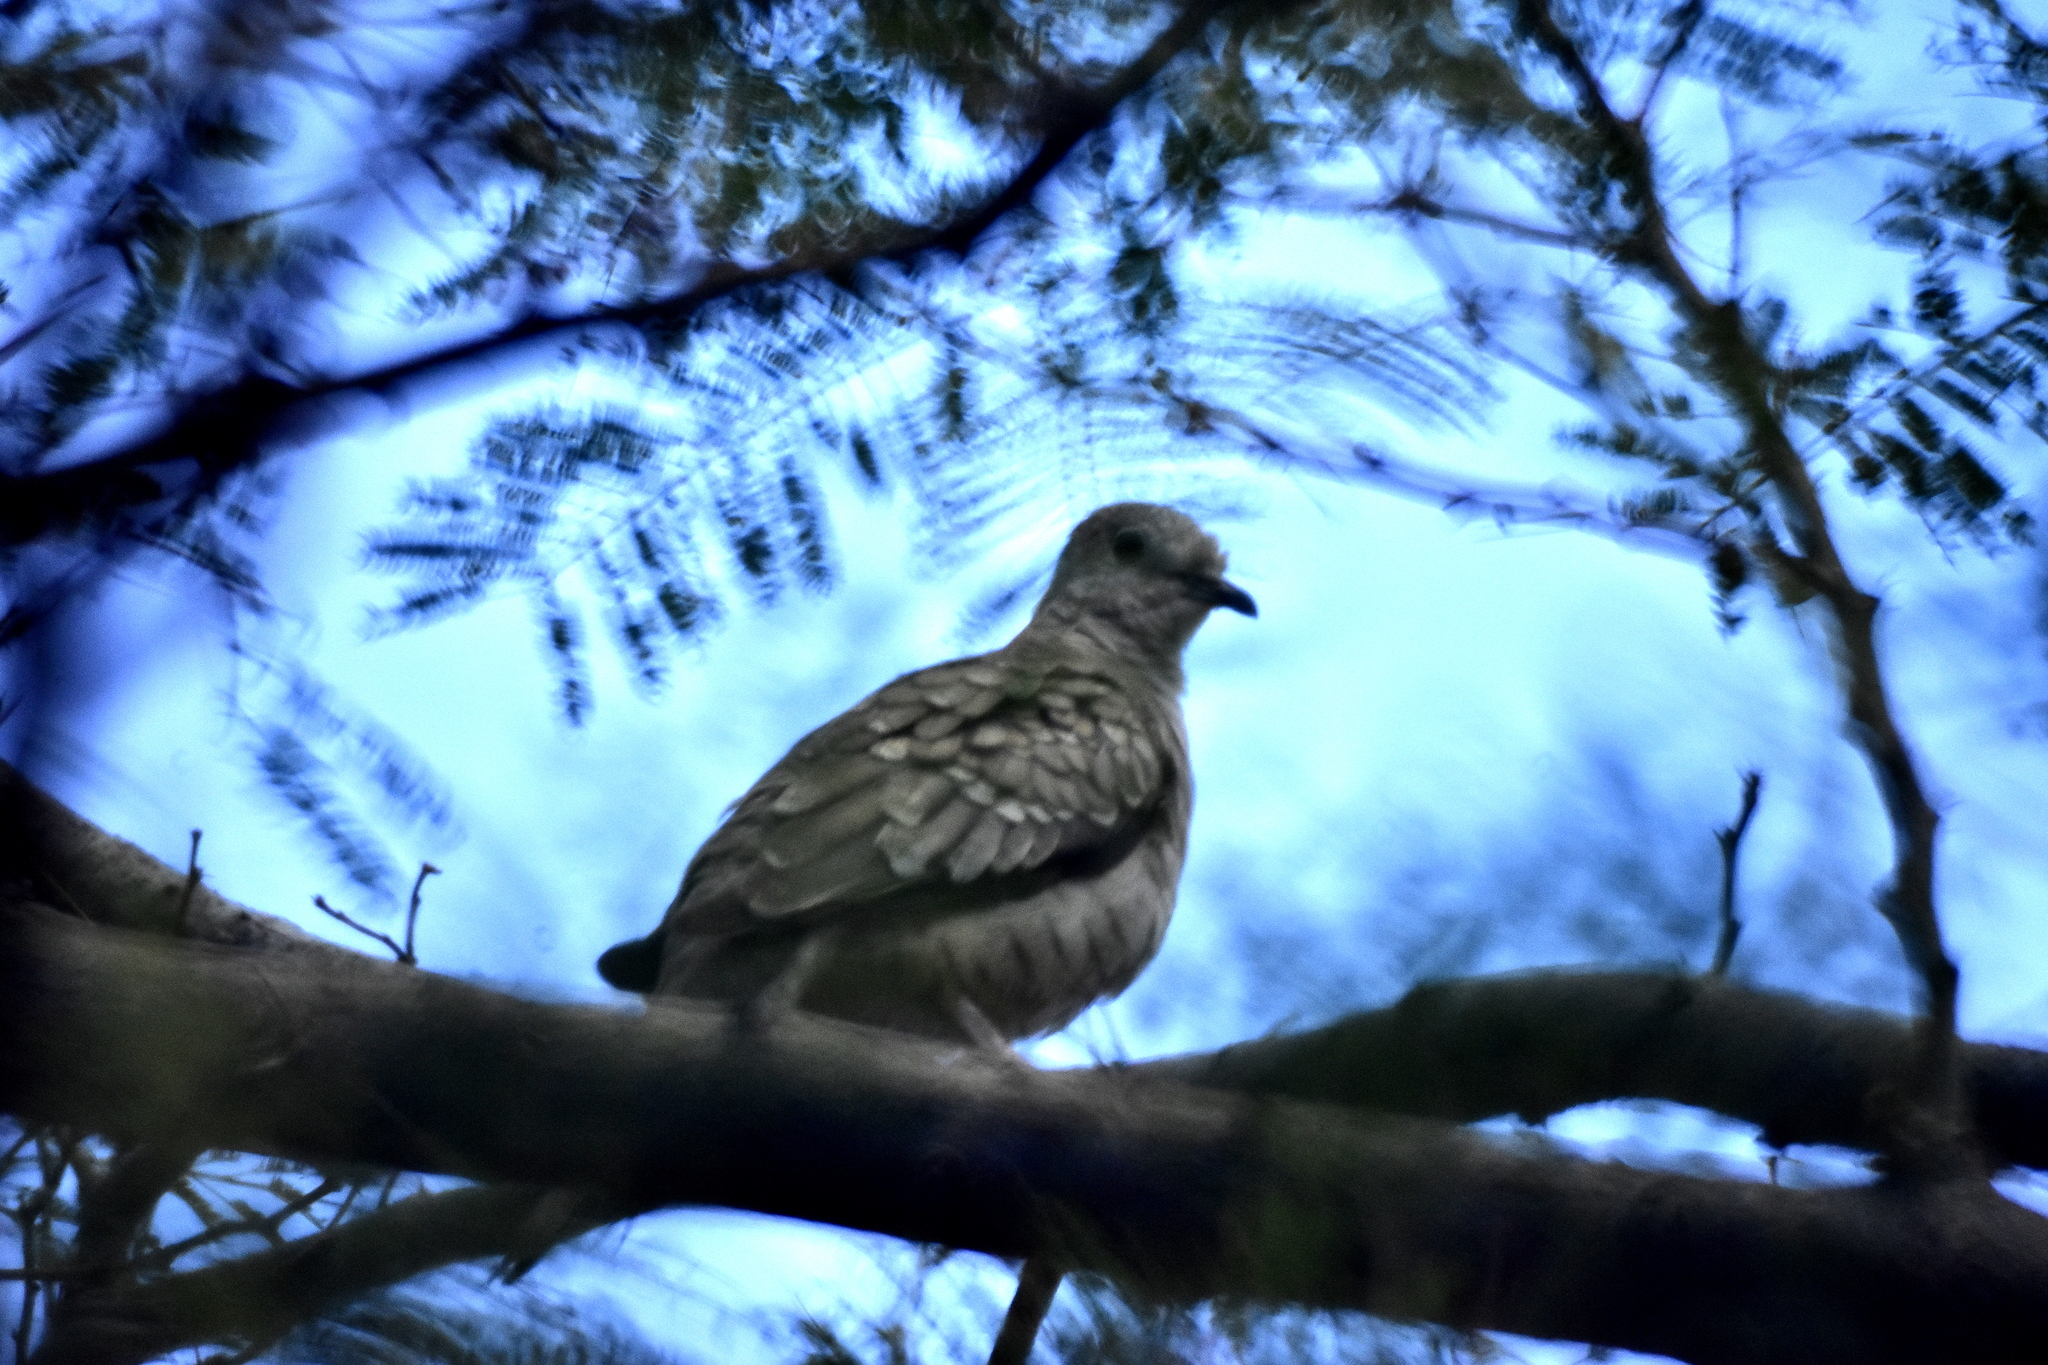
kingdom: Animalia
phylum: Chordata
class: Aves
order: Columbiformes
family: Columbidae
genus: Columbina
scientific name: Columbina inca
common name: Inca dove
